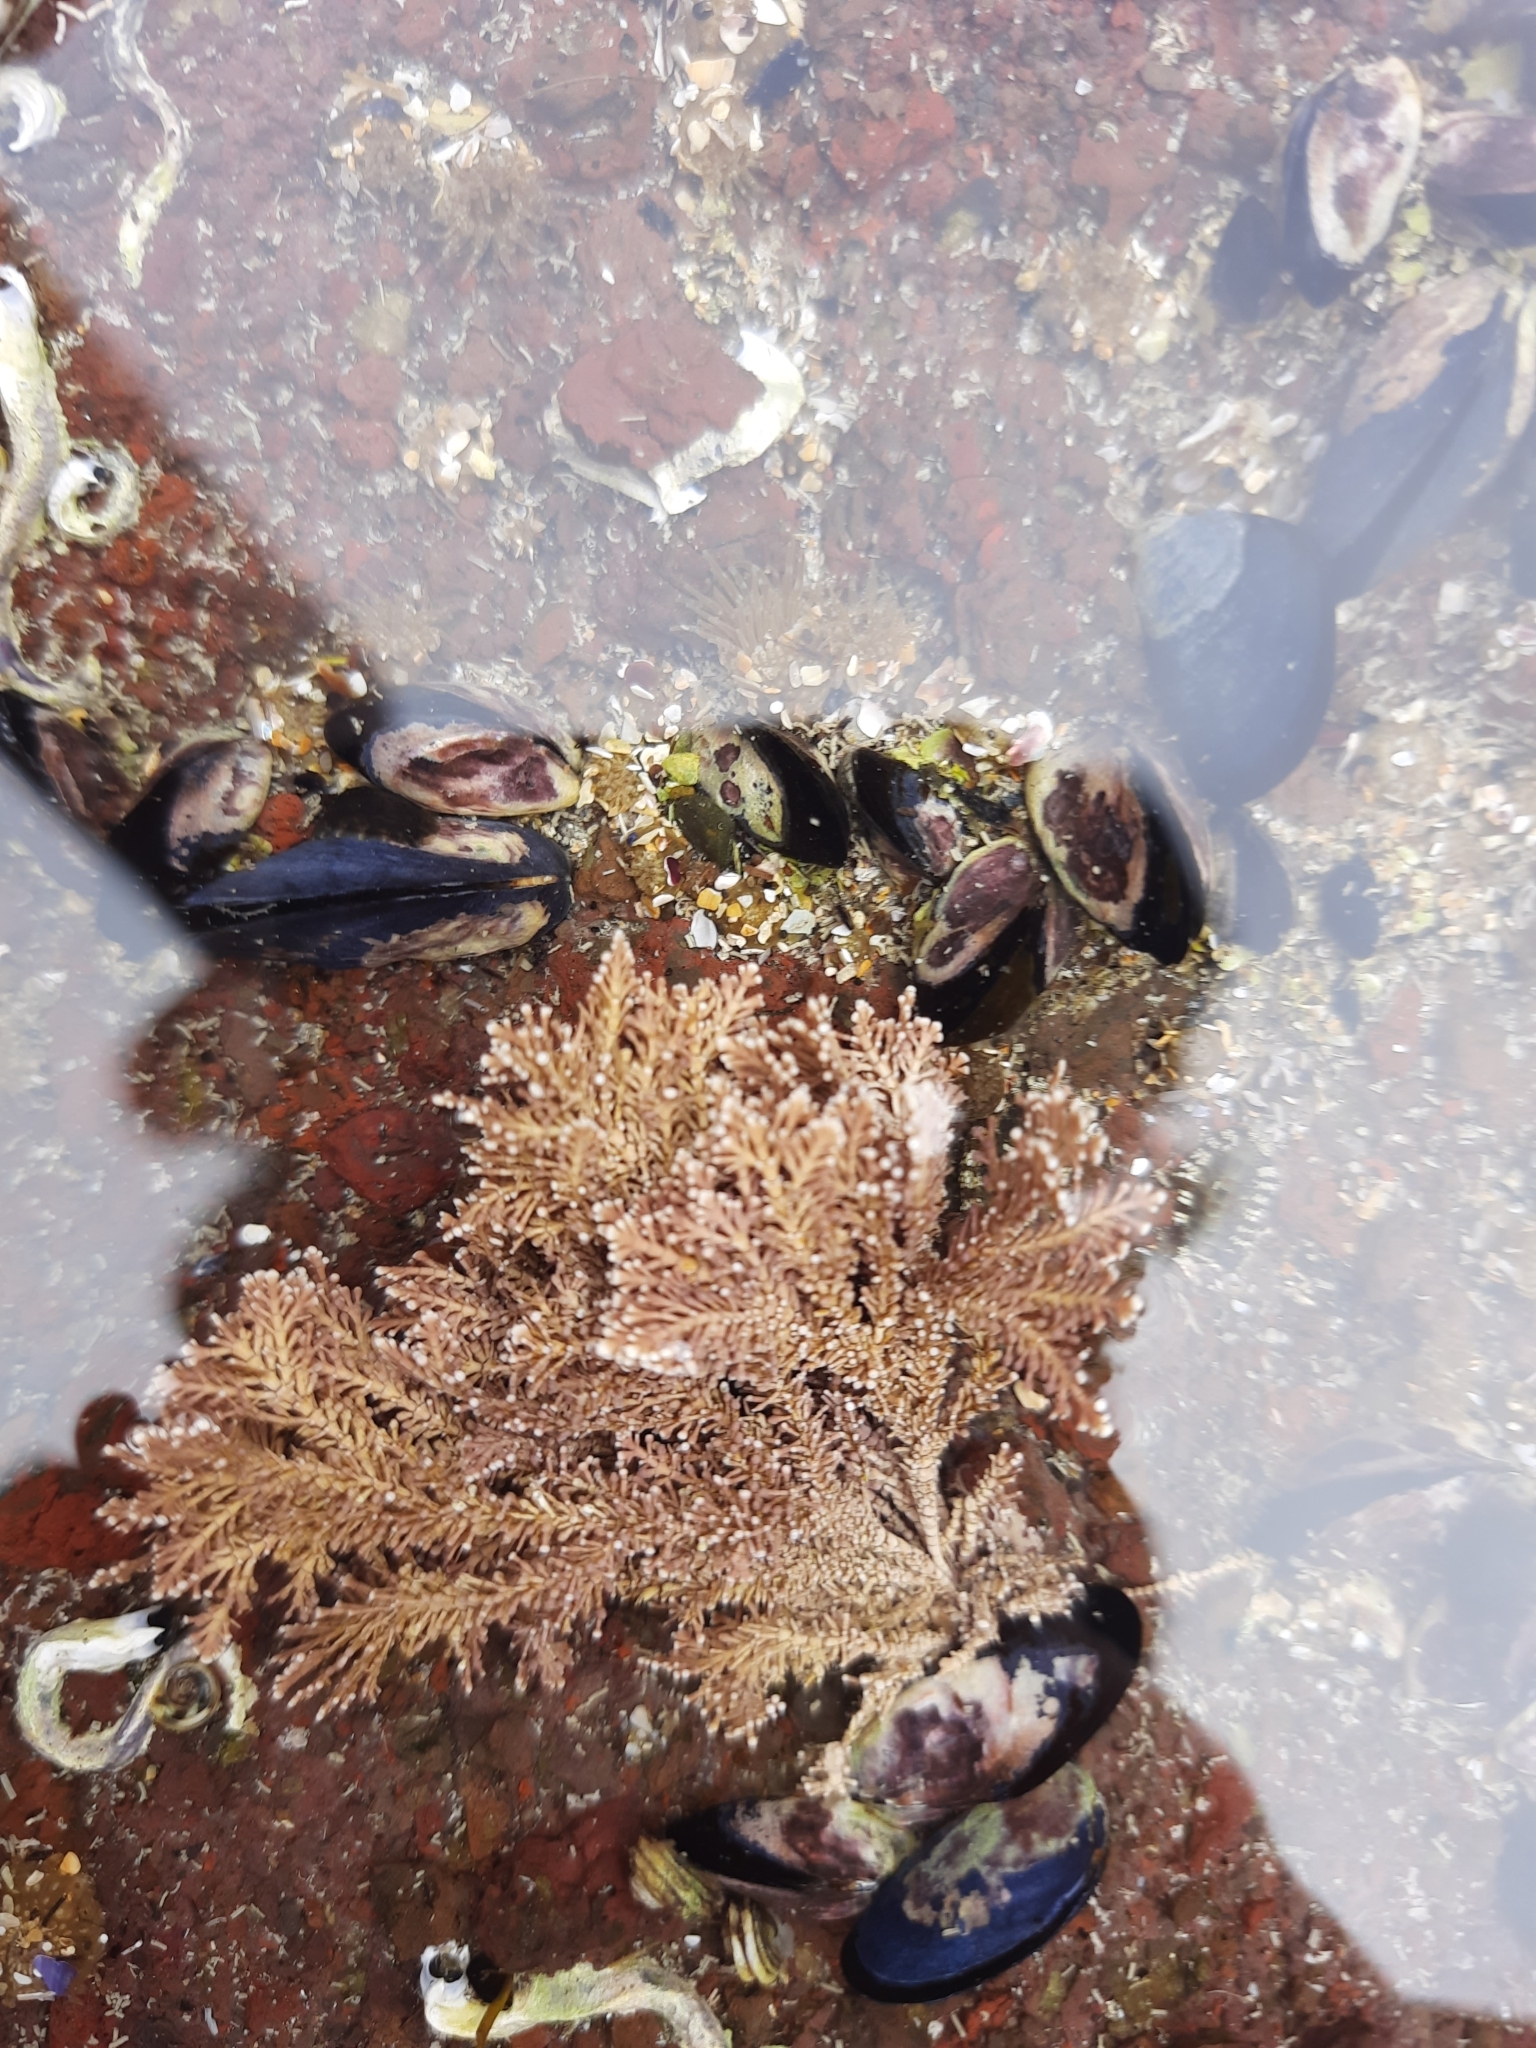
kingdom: Plantae
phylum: Rhodophyta
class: Florideophyceae
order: Corallinales
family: Corallinaceae
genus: Corallina
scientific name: Corallina officinalis
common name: Coral weed
